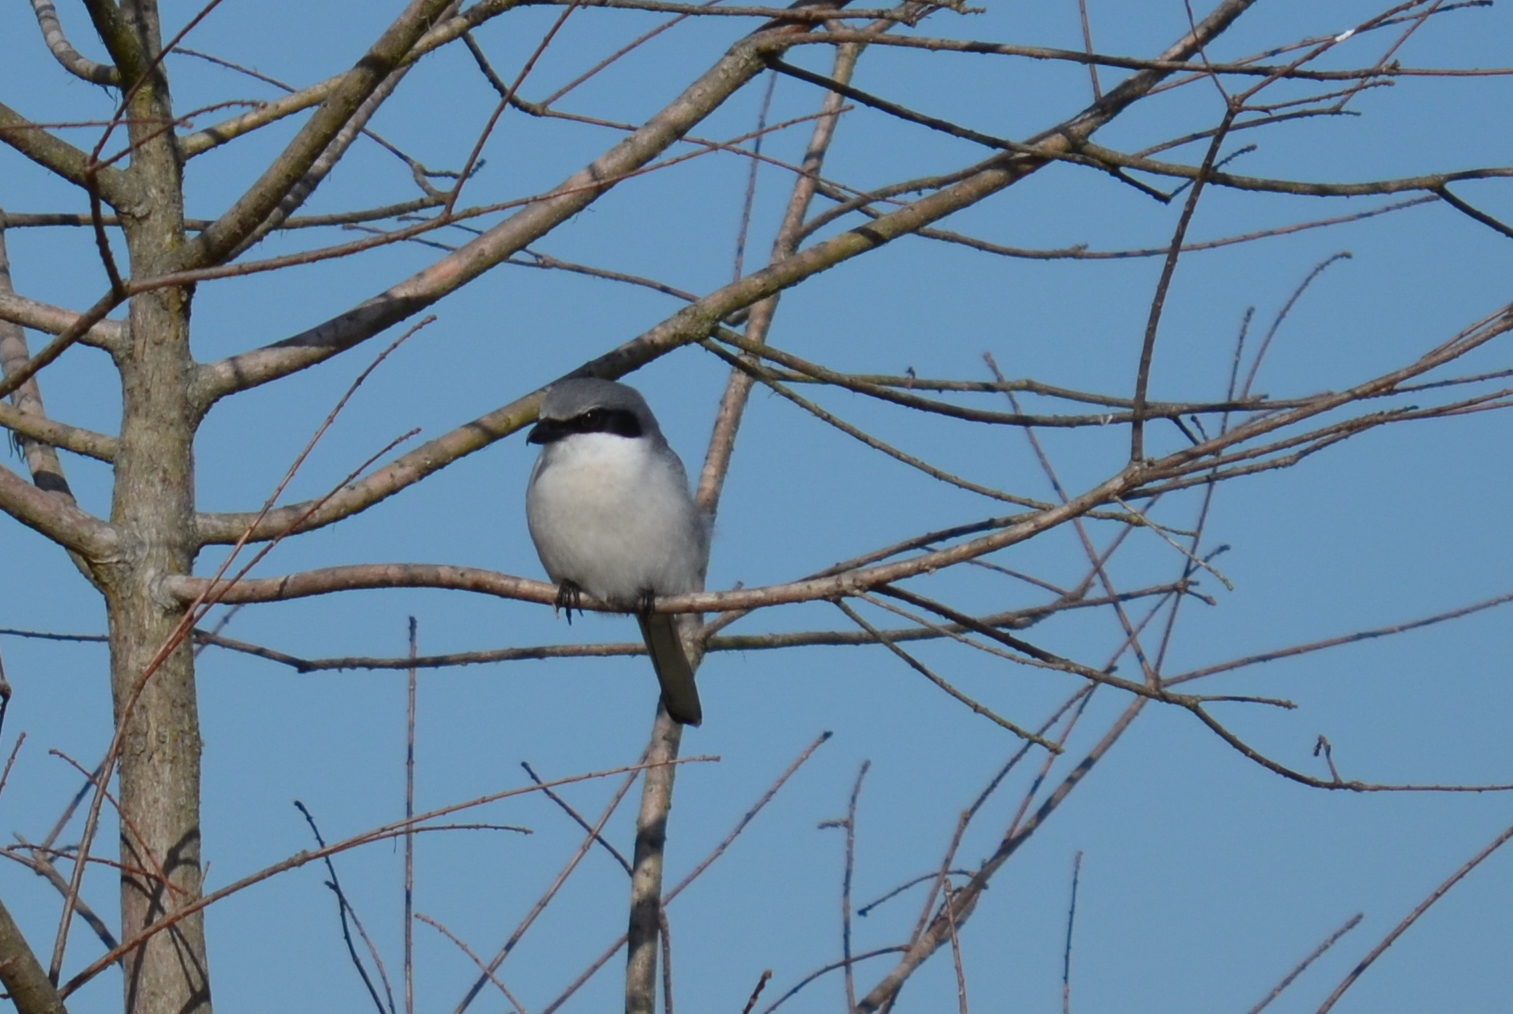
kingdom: Animalia
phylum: Chordata
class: Aves
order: Passeriformes
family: Laniidae
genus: Lanius
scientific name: Lanius ludovicianus
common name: Loggerhead shrike
